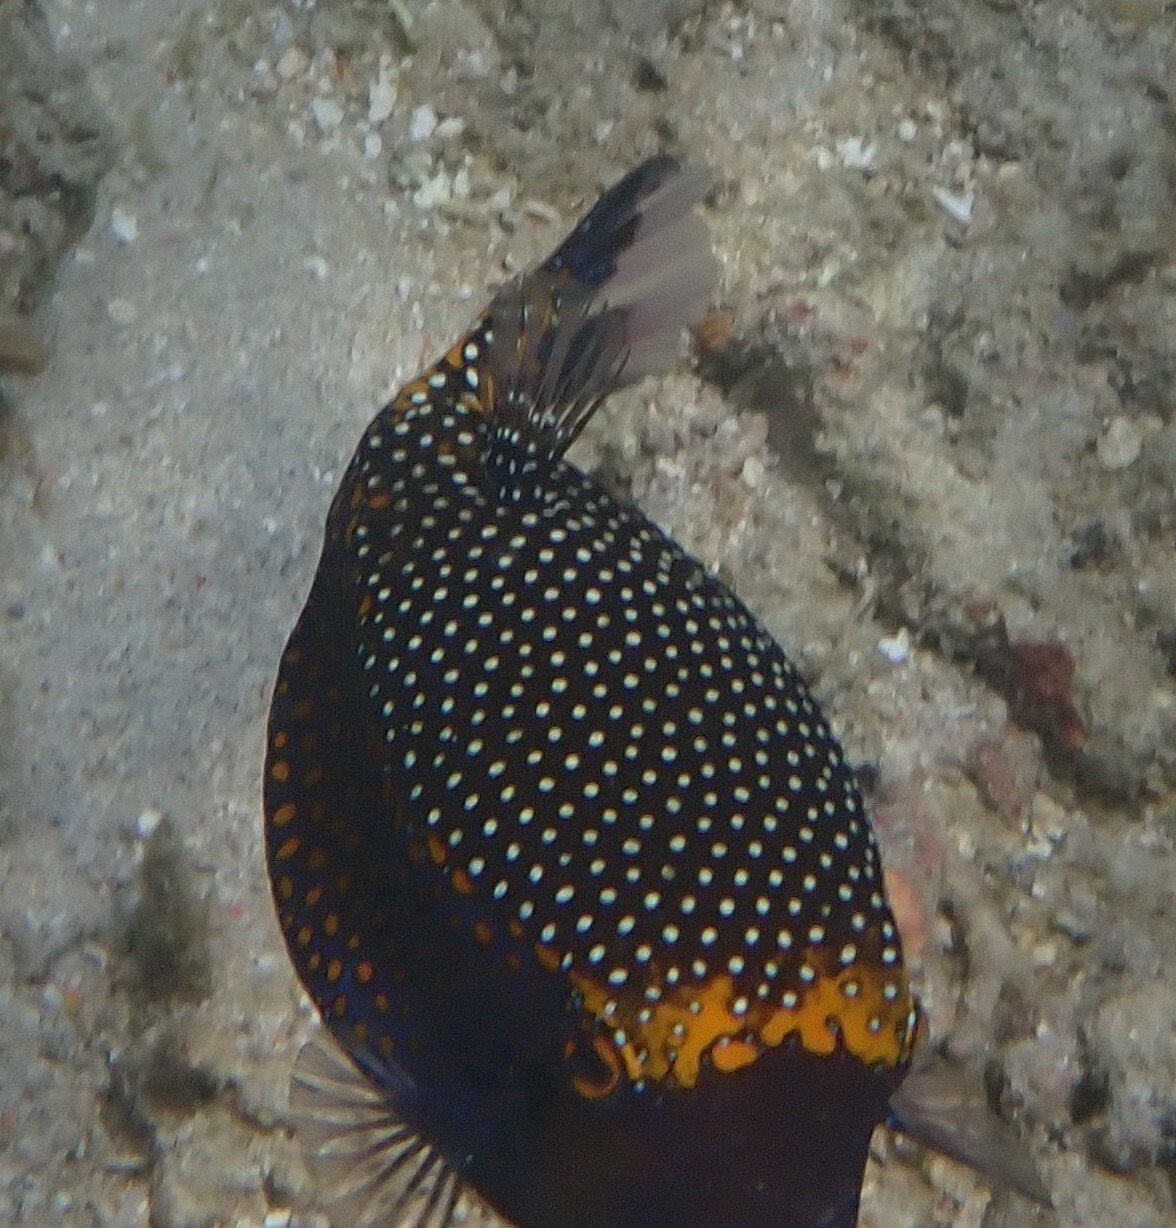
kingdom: Animalia
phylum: Chordata
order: Tetraodontiformes
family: Ostraciidae
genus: Ostracion
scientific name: Ostracion meleagris
